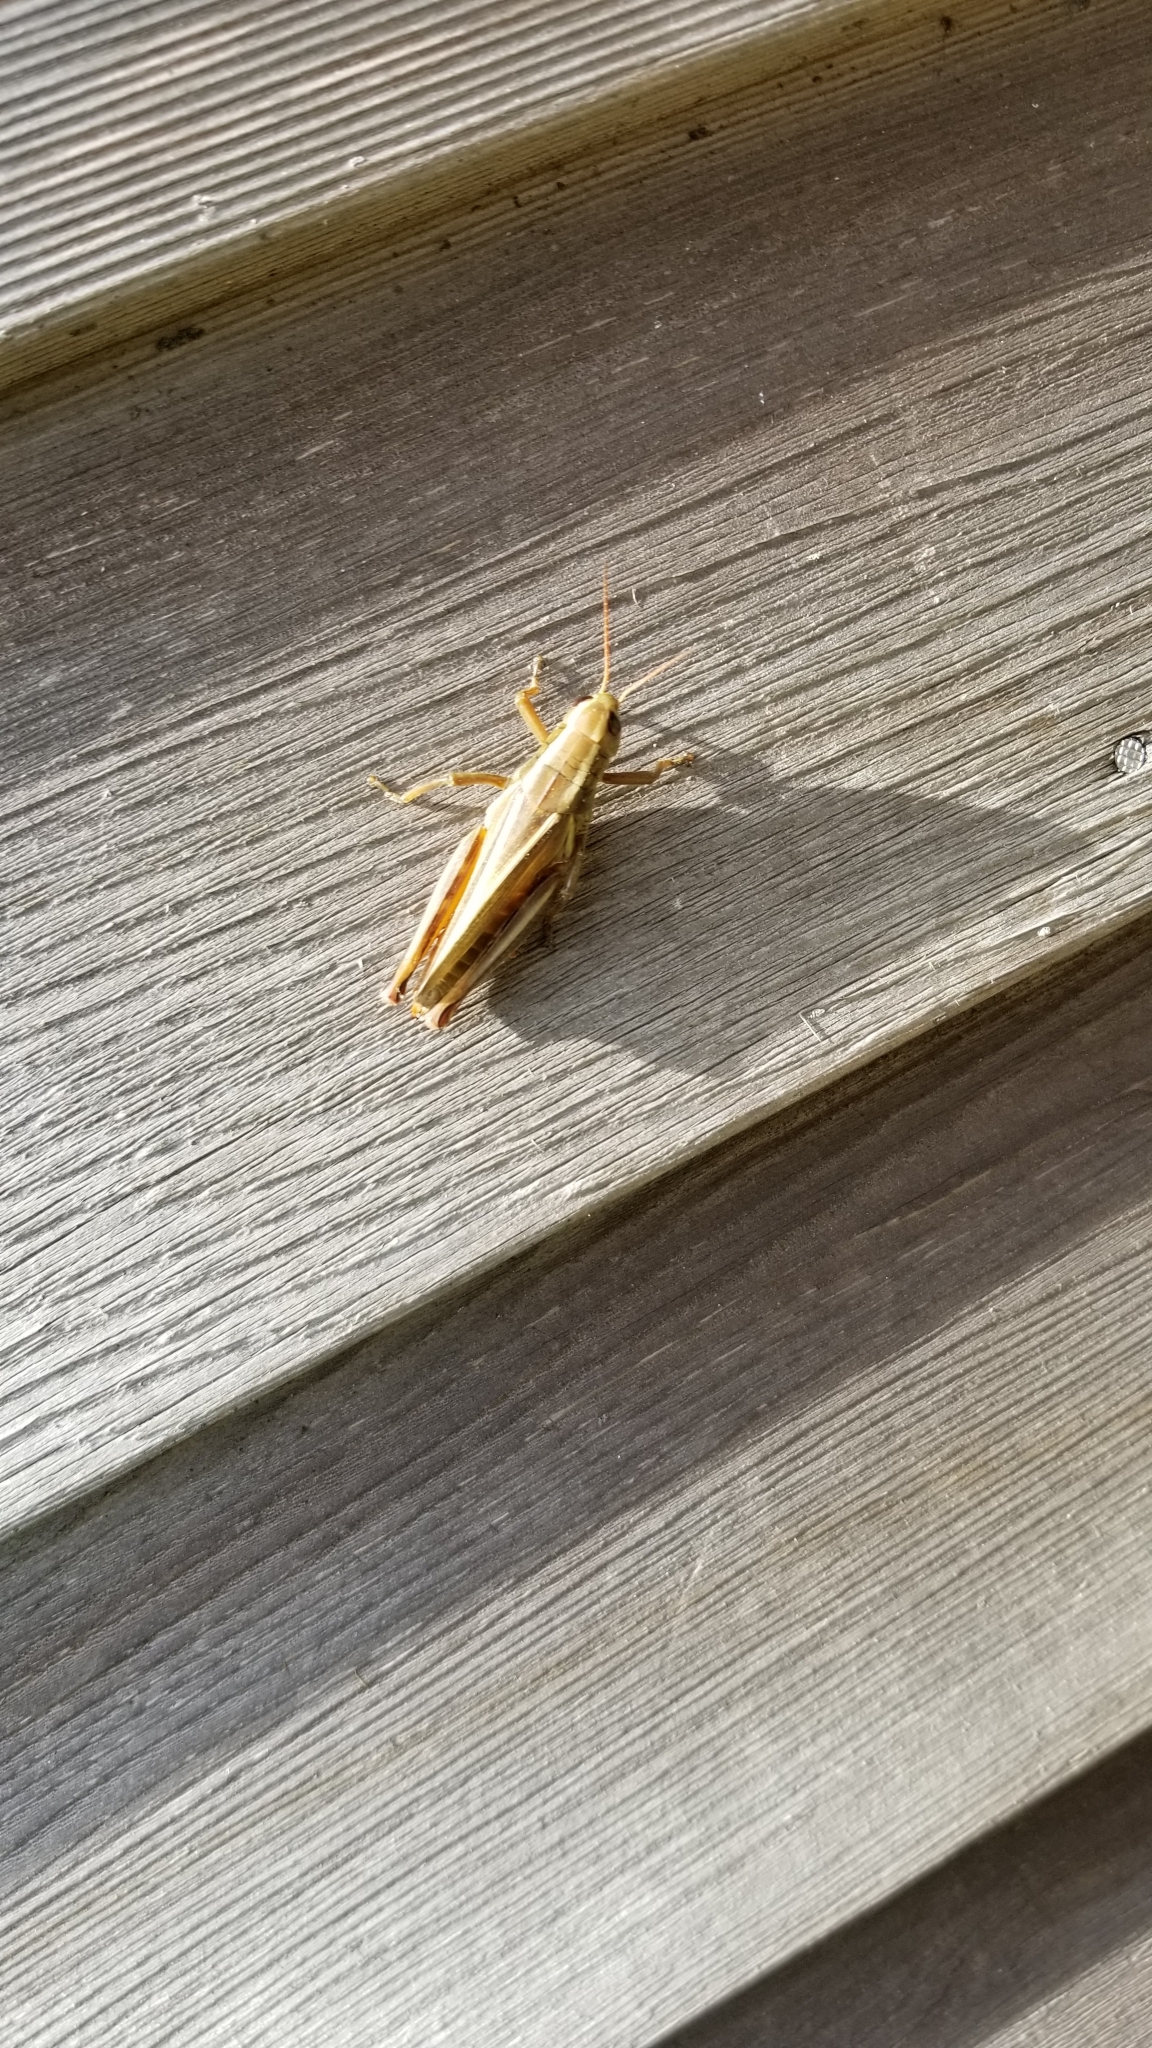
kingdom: Animalia
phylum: Arthropoda
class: Insecta
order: Orthoptera
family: Acrididae
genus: Melanoplus
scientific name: Melanoplus bivittatus
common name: Two-striped grasshopper
